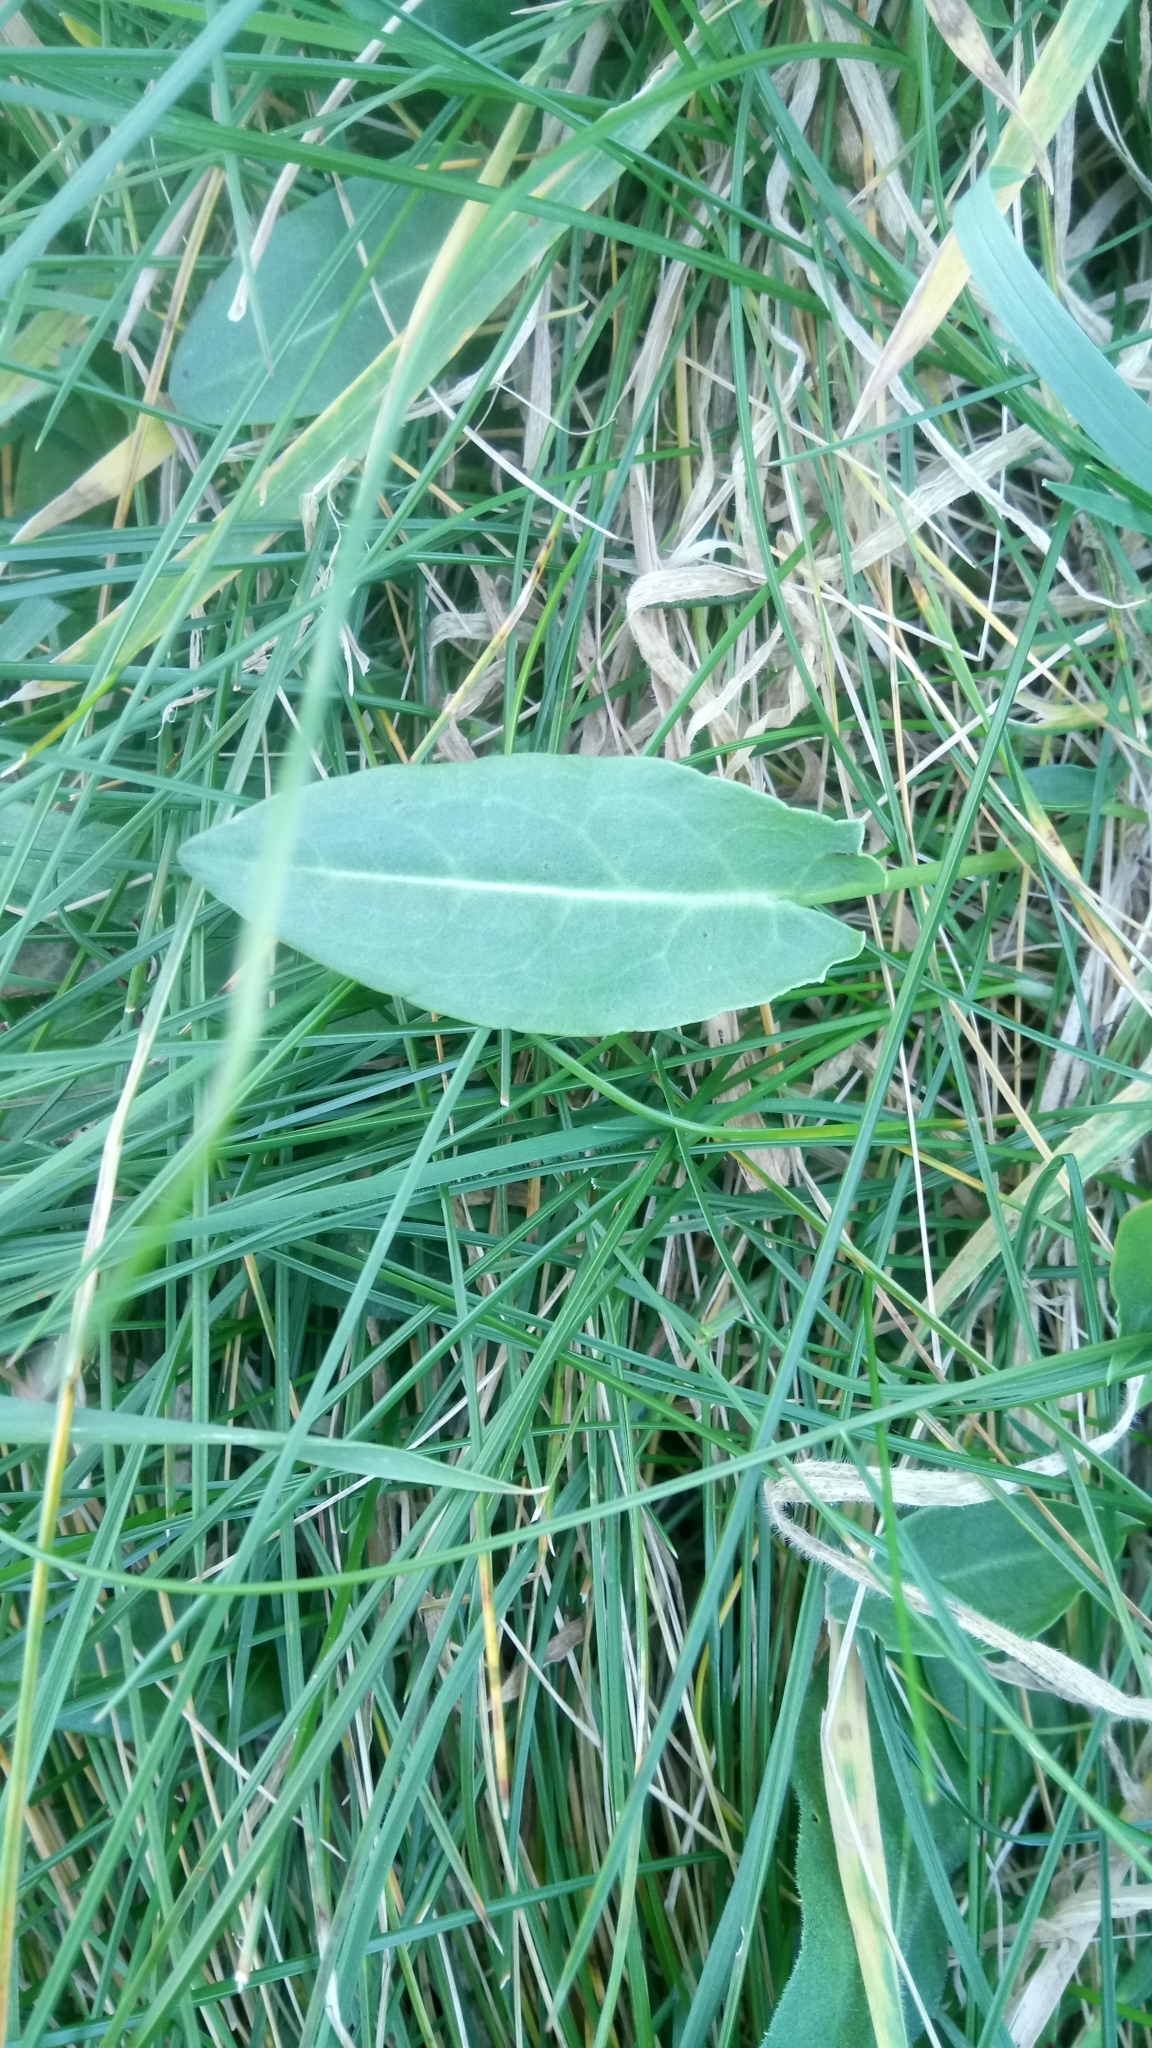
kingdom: Plantae
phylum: Tracheophyta
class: Magnoliopsida
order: Caryophyllales
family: Polygonaceae
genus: Rumex
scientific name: Rumex acetosa
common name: Garden sorrel
